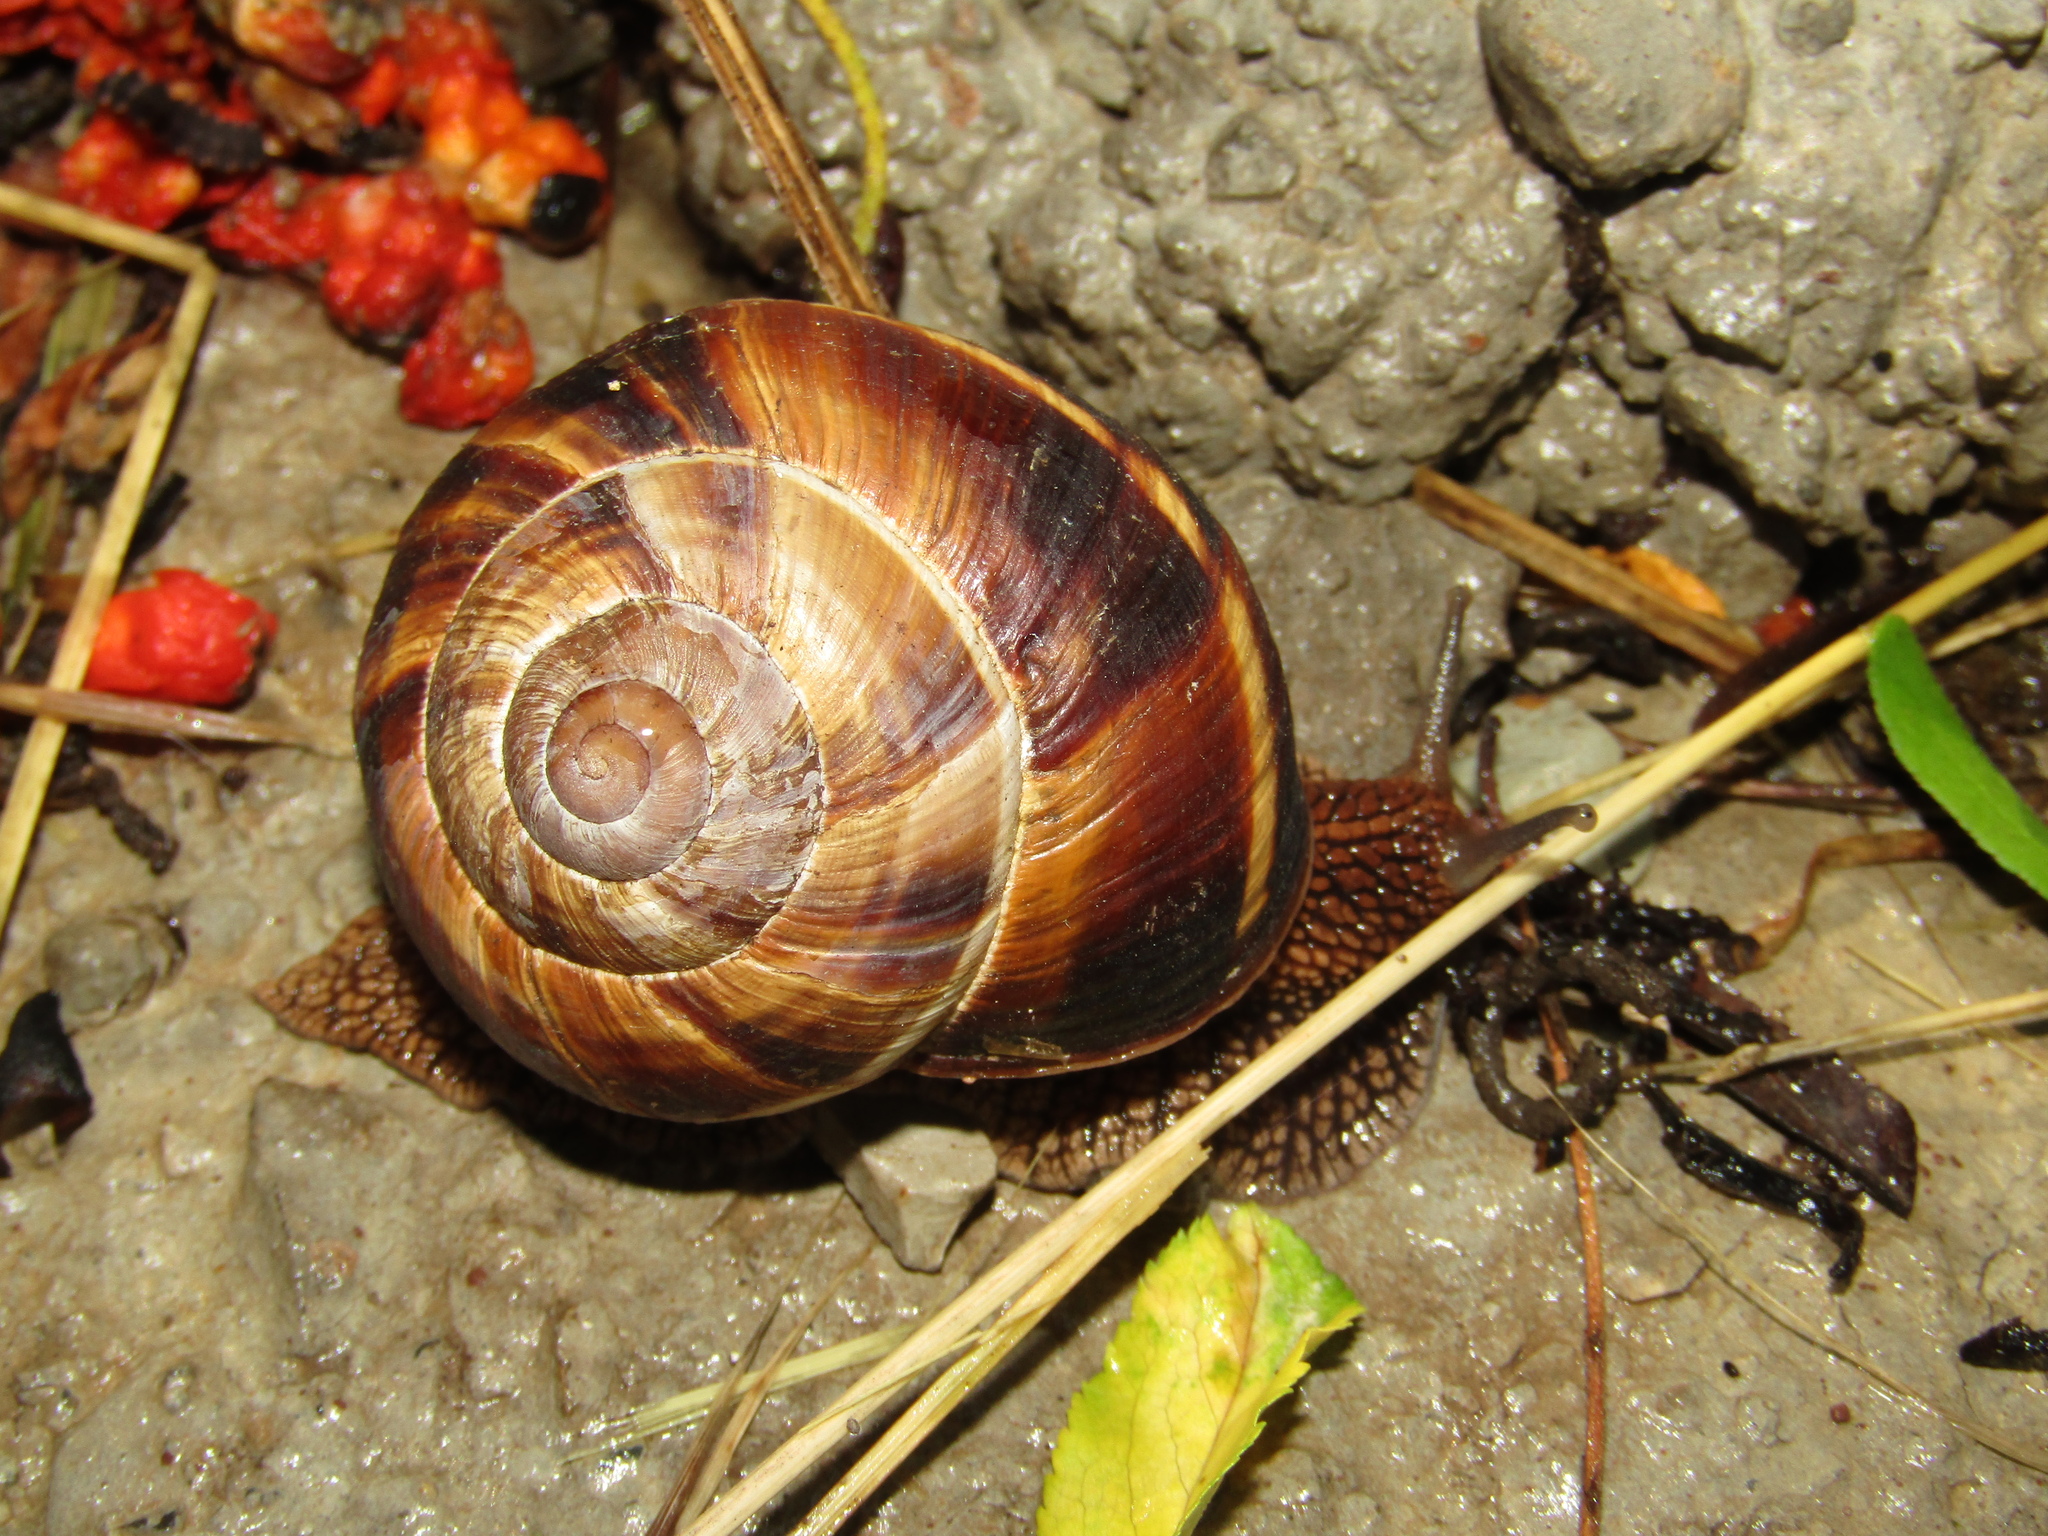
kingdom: Animalia
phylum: Mollusca
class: Gastropoda
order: Stylommatophora
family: Helicidae
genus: Helix
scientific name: Helix lucorum
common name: Turkish snail
